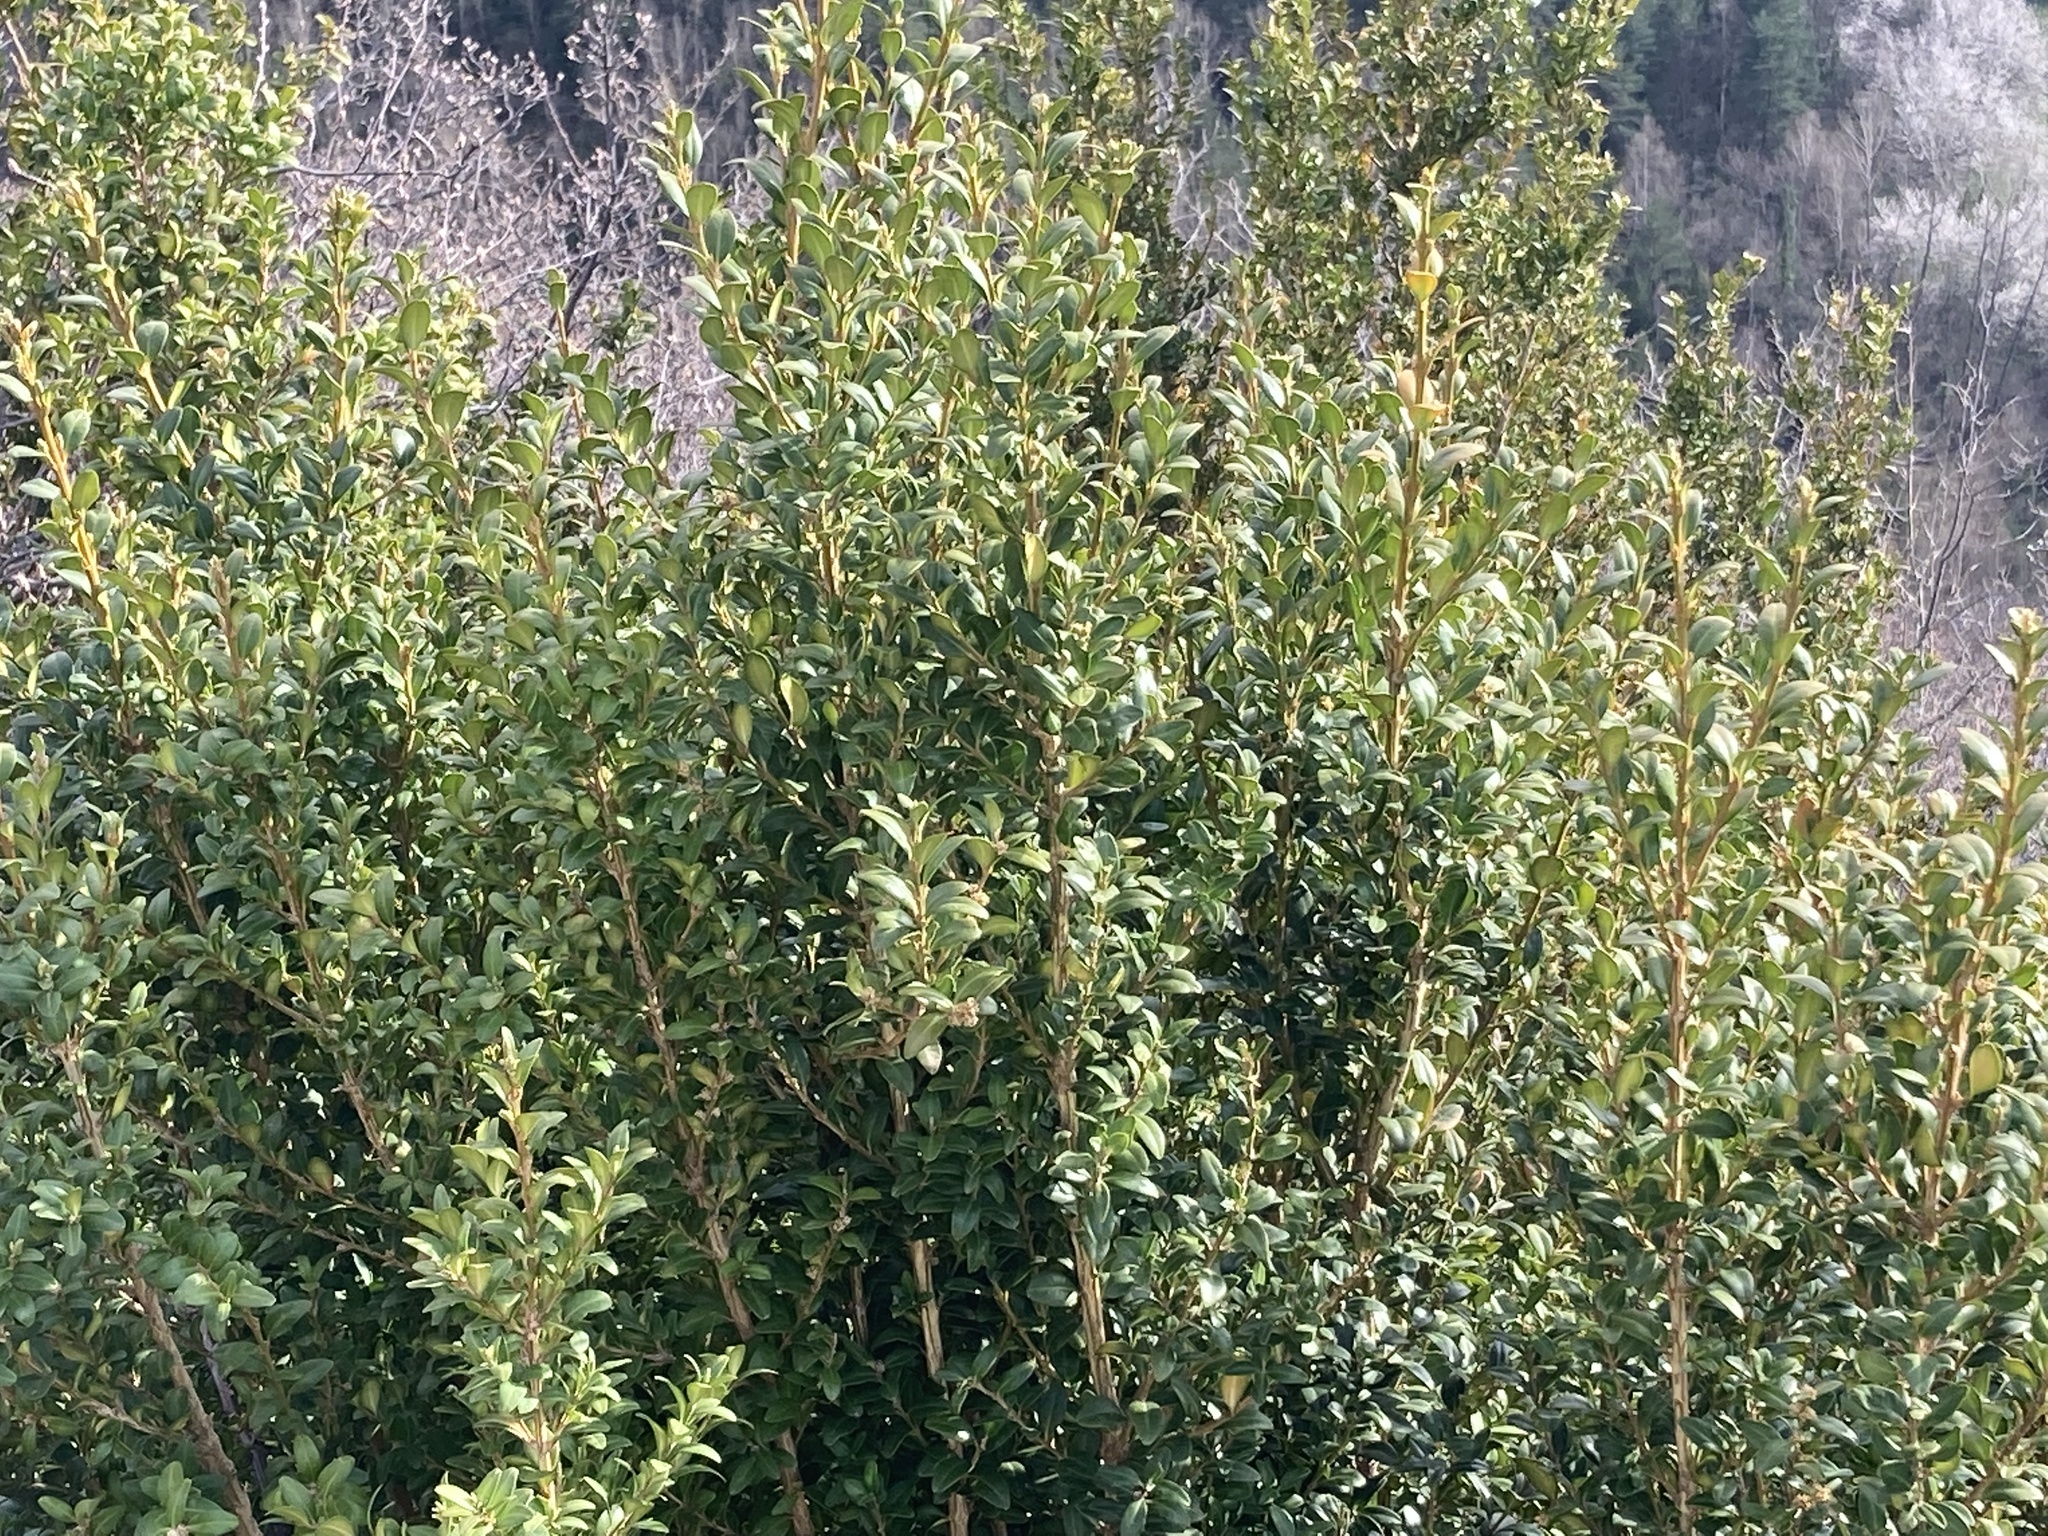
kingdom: Plantae
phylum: Tracheophyta
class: Magnoliopsida
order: Buxales
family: Buxaceae
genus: Buxus
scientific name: Buxus sempervirens
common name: Box
